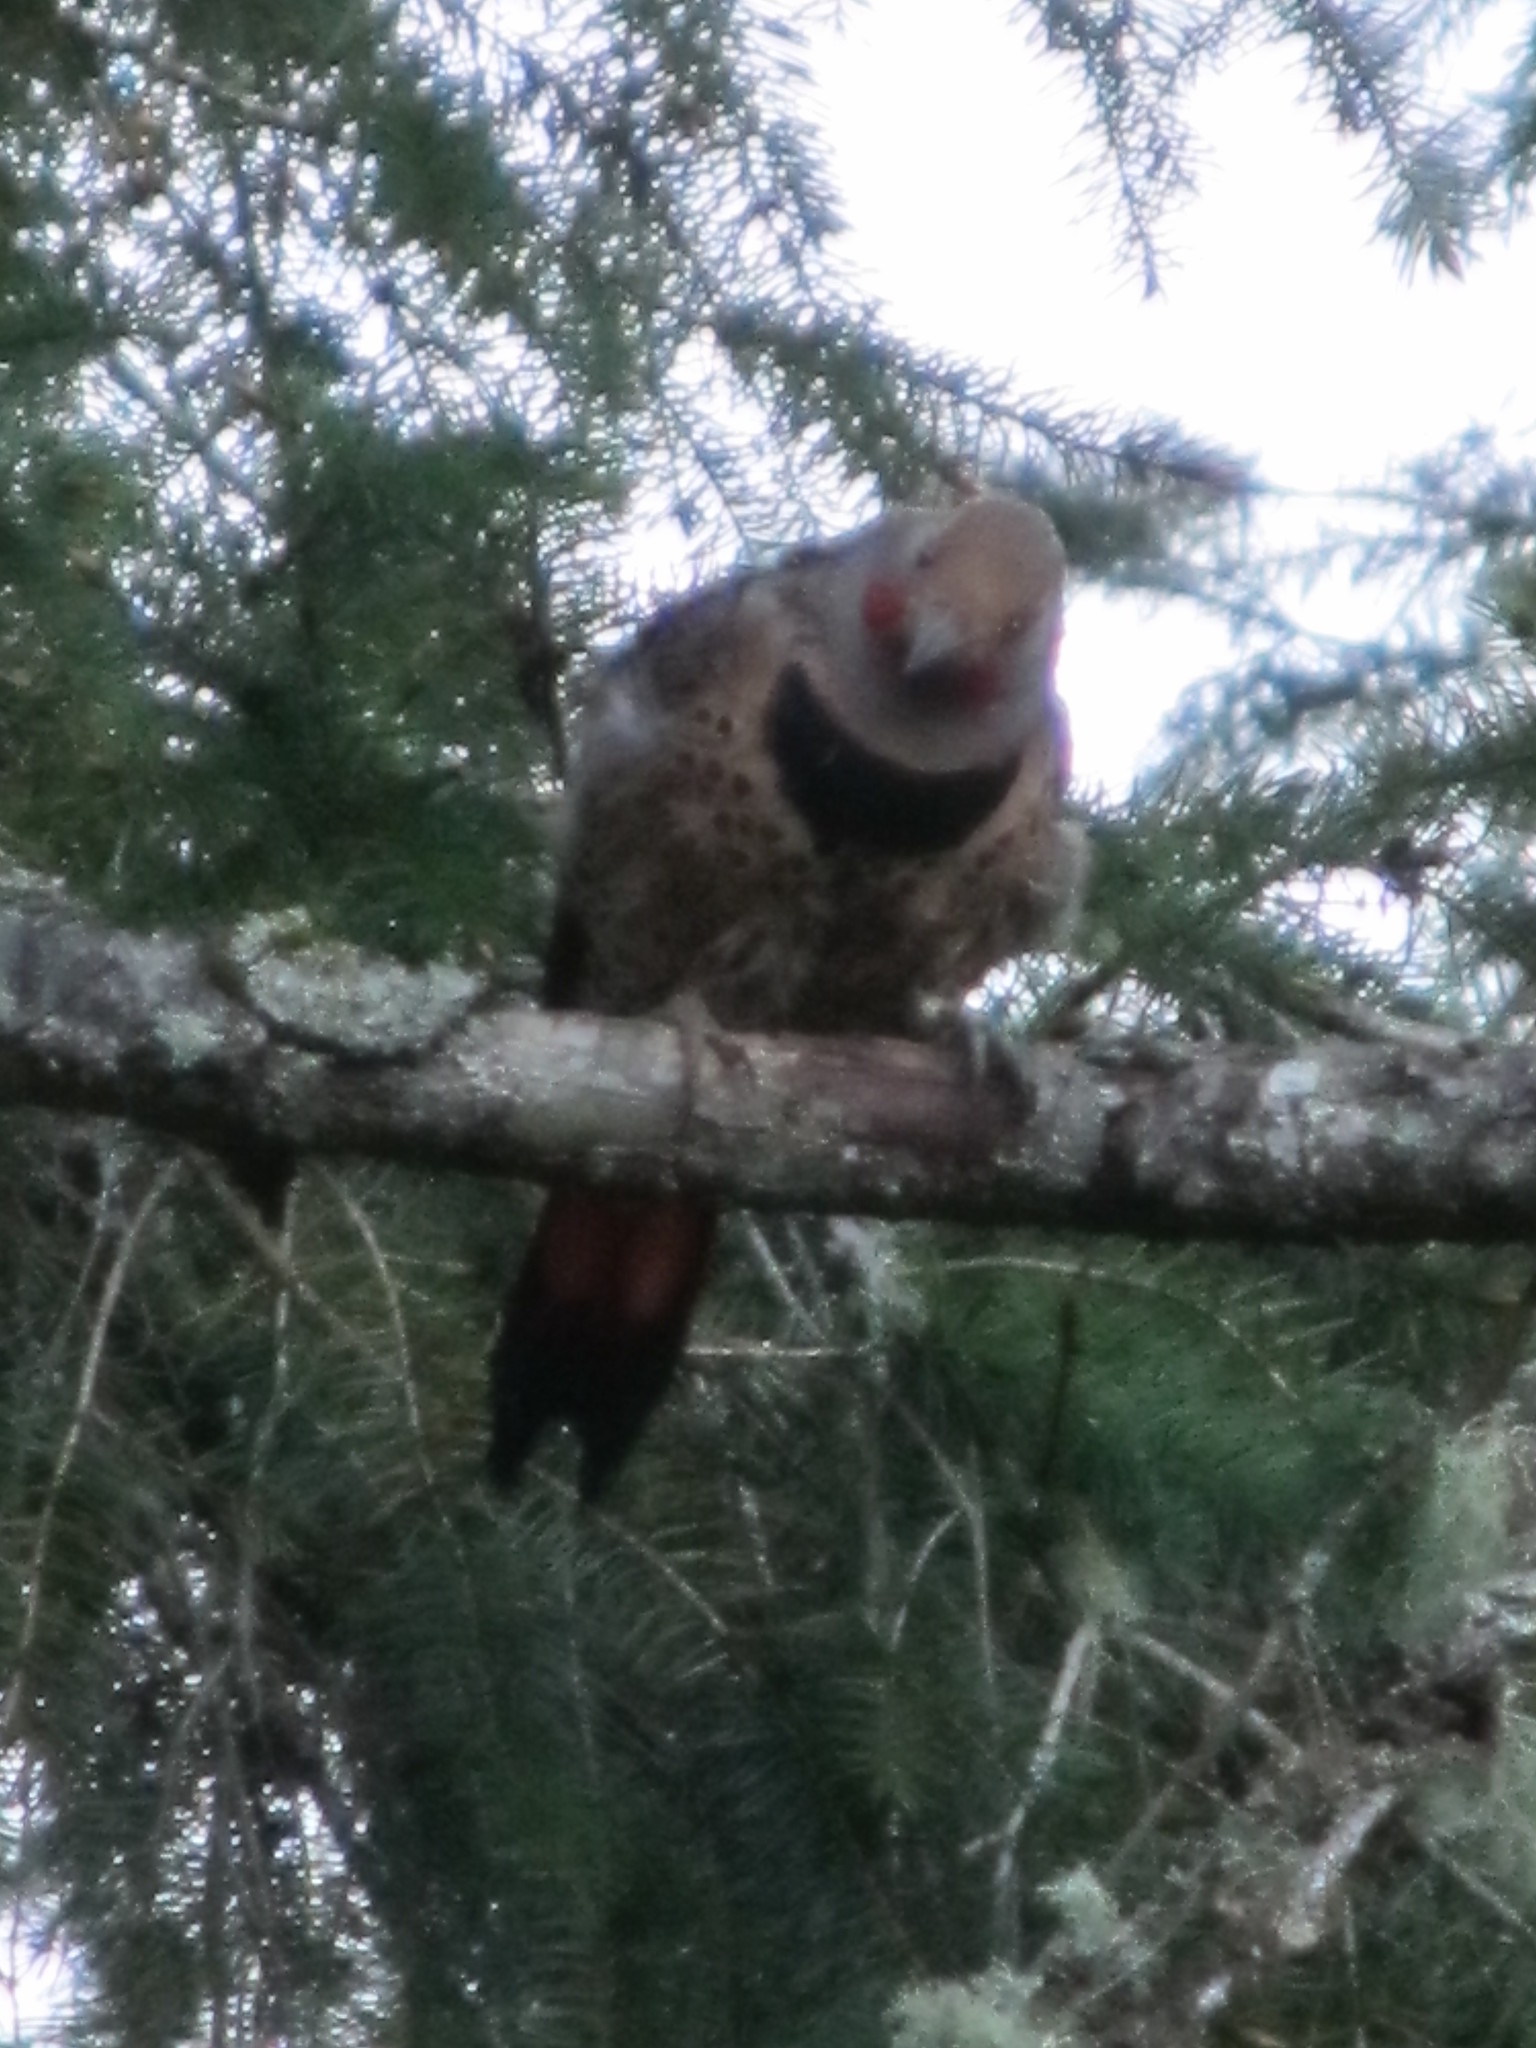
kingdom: Animalia
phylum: Chordata
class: Aves
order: Piciformes
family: Picidae
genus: Colaptes
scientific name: Colaptes auratus
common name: Northern flicker
